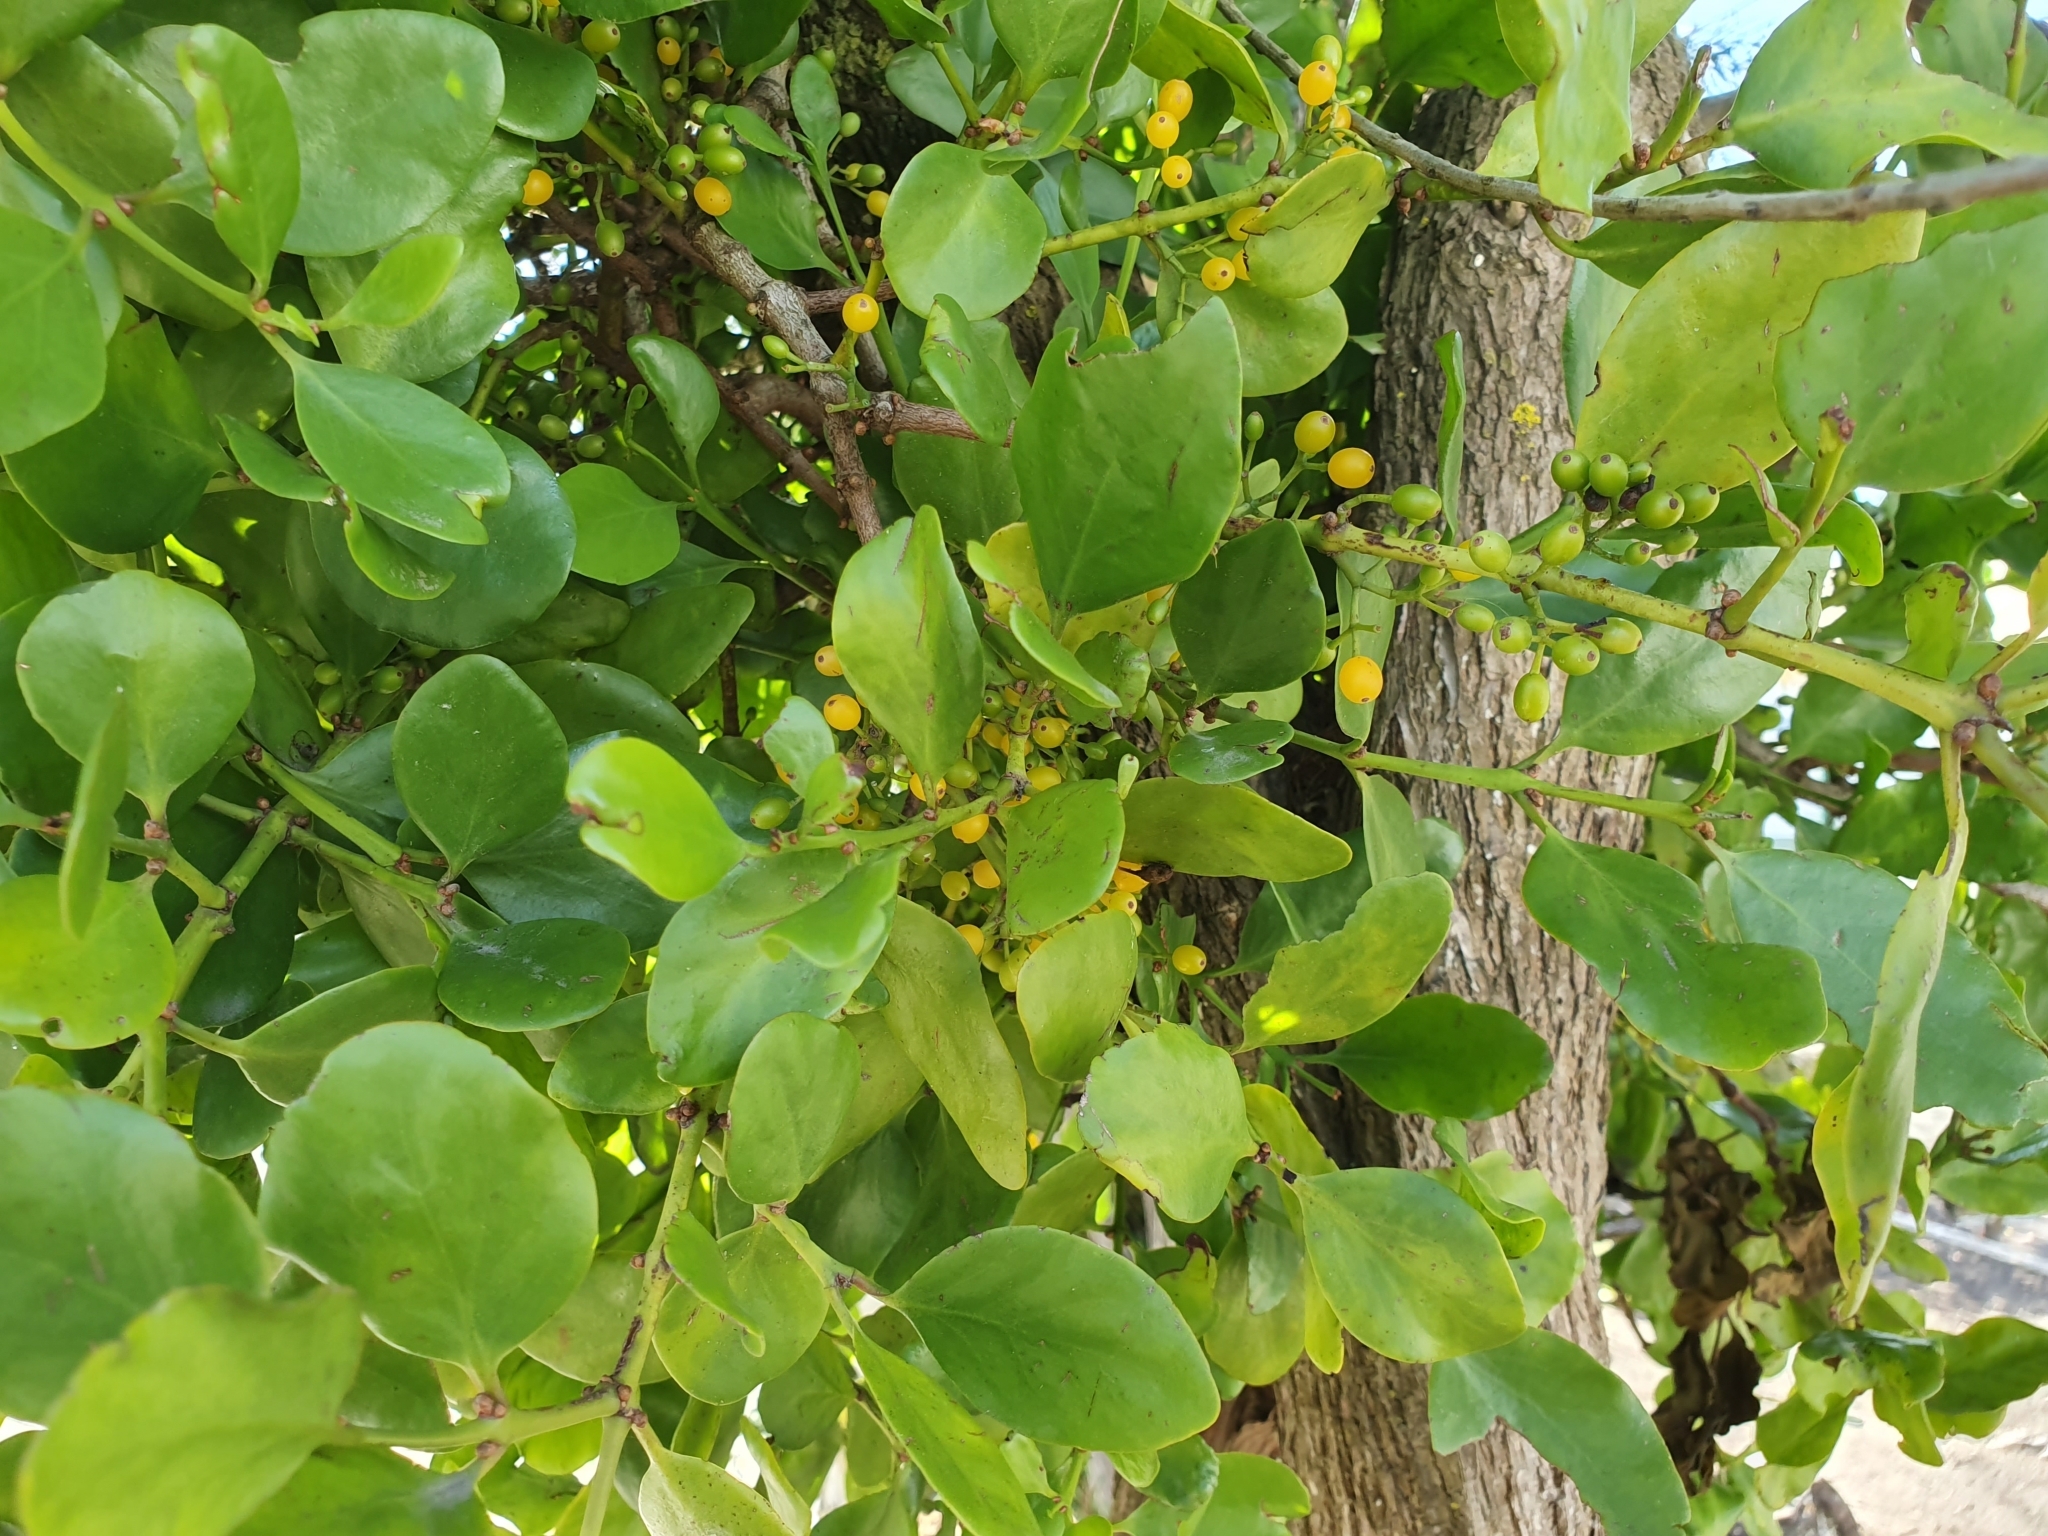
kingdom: Plantae
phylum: Tracheophyta
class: Magnoliopsida
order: Santalales
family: Loranthaceae
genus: Ileostylus
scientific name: Ileostylus micranthus
